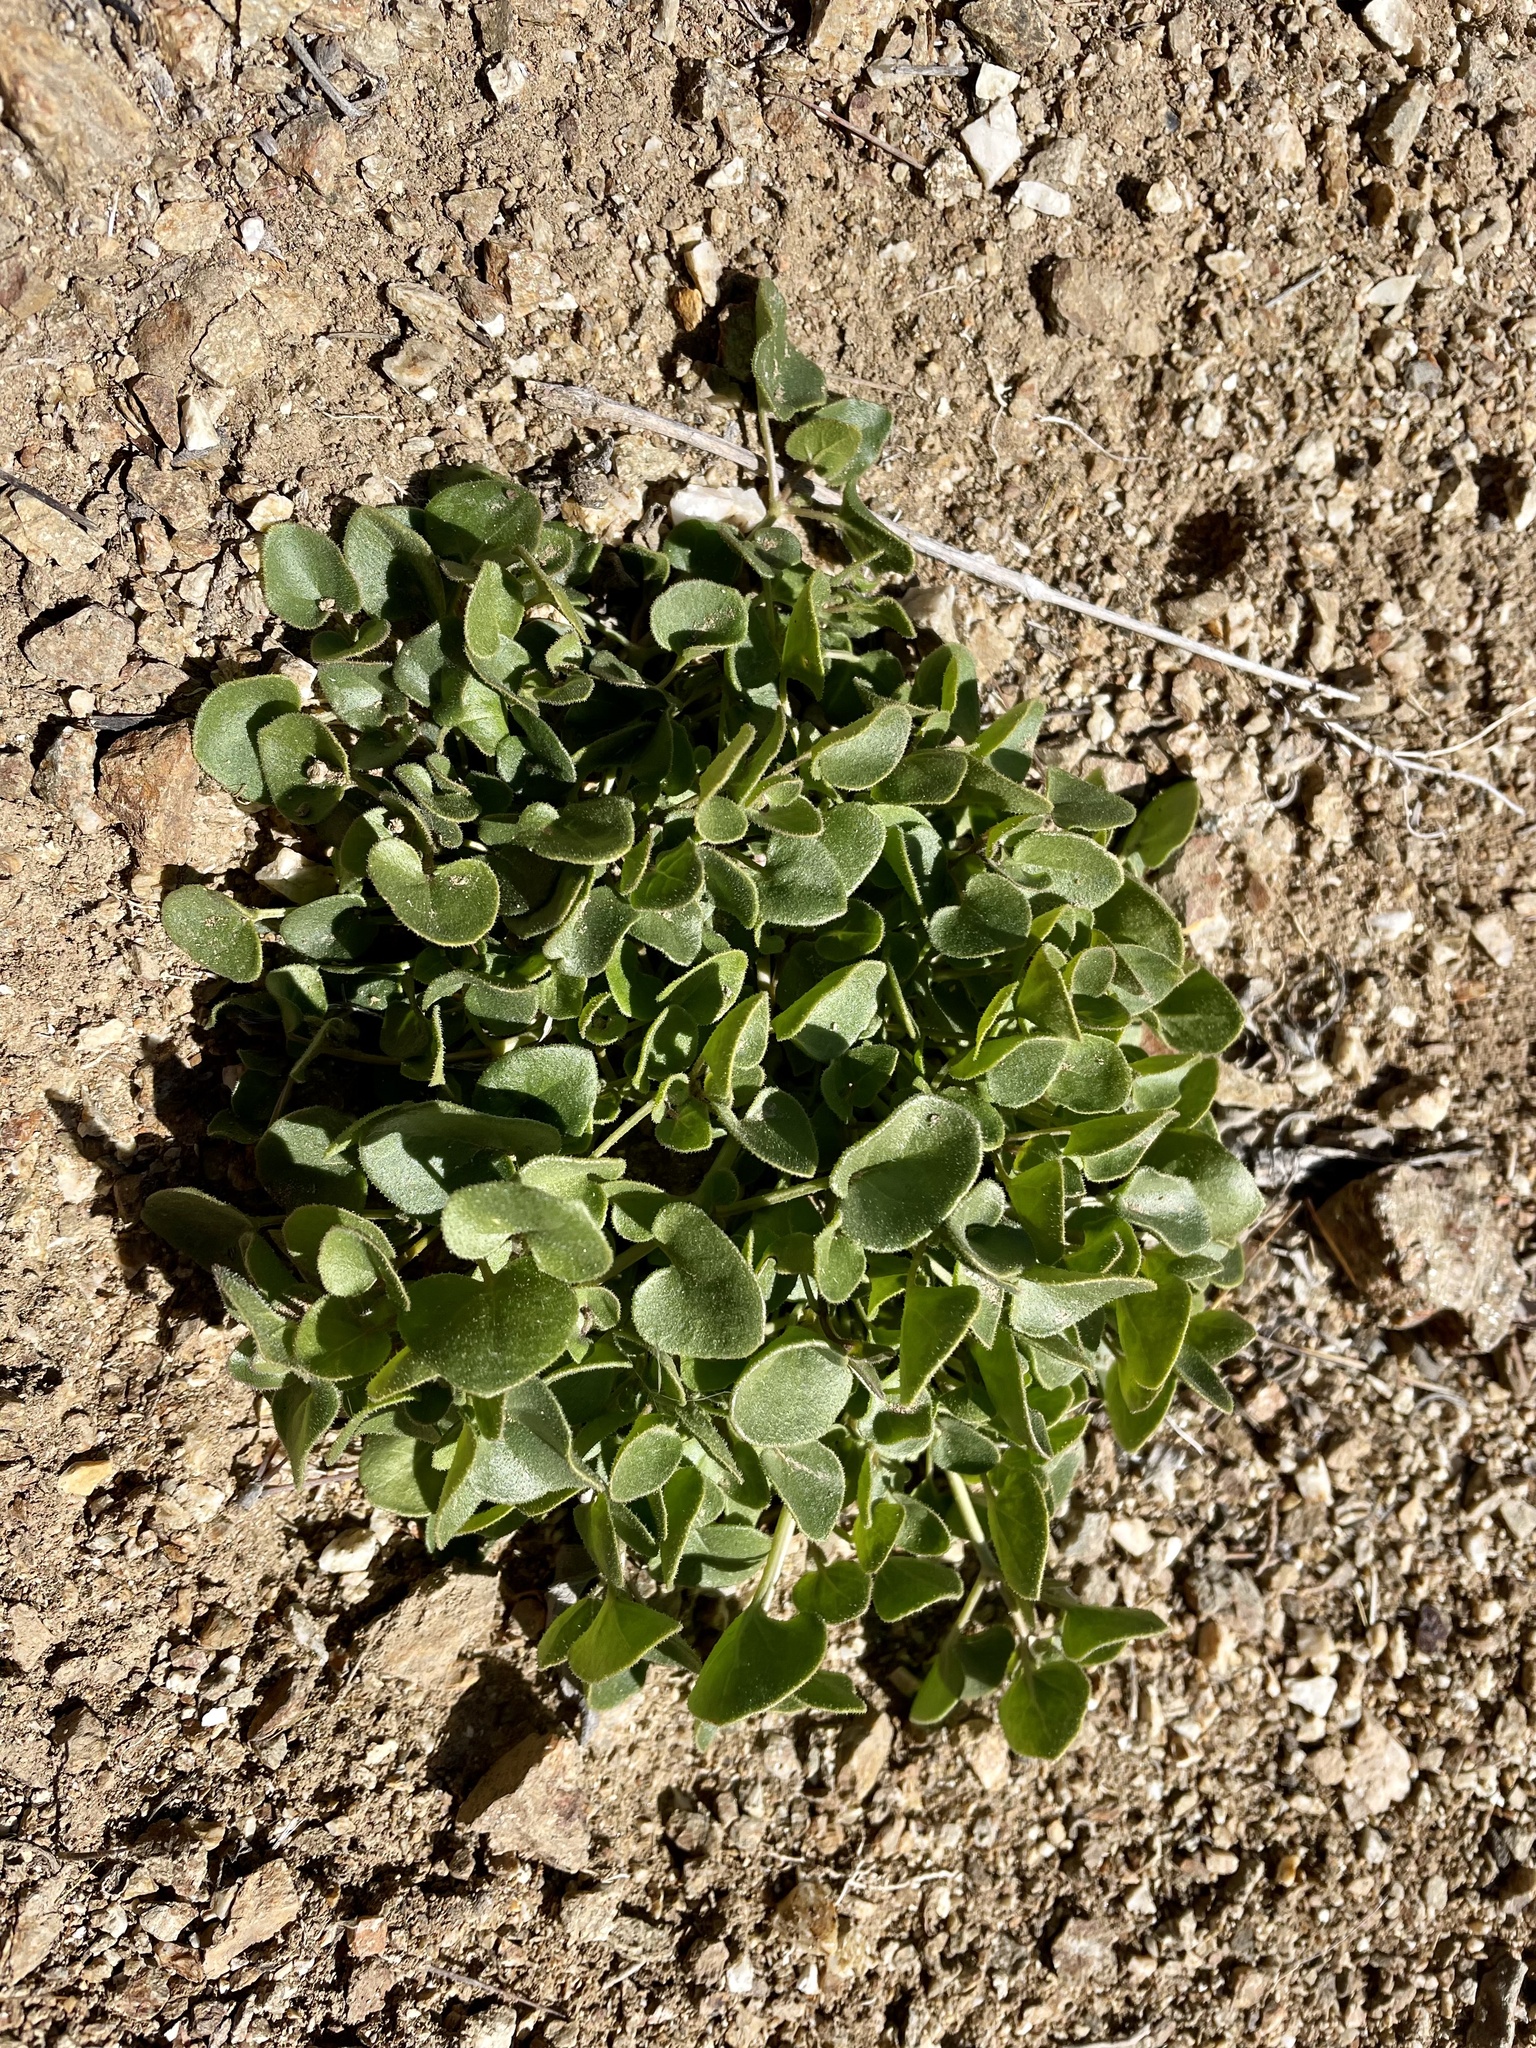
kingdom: Plantae
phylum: Tracheophyta
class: Magnoliopsida
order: Caryophyllales
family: Nyctaginaceae
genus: Mirabilis
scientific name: Mirabilis laevis
